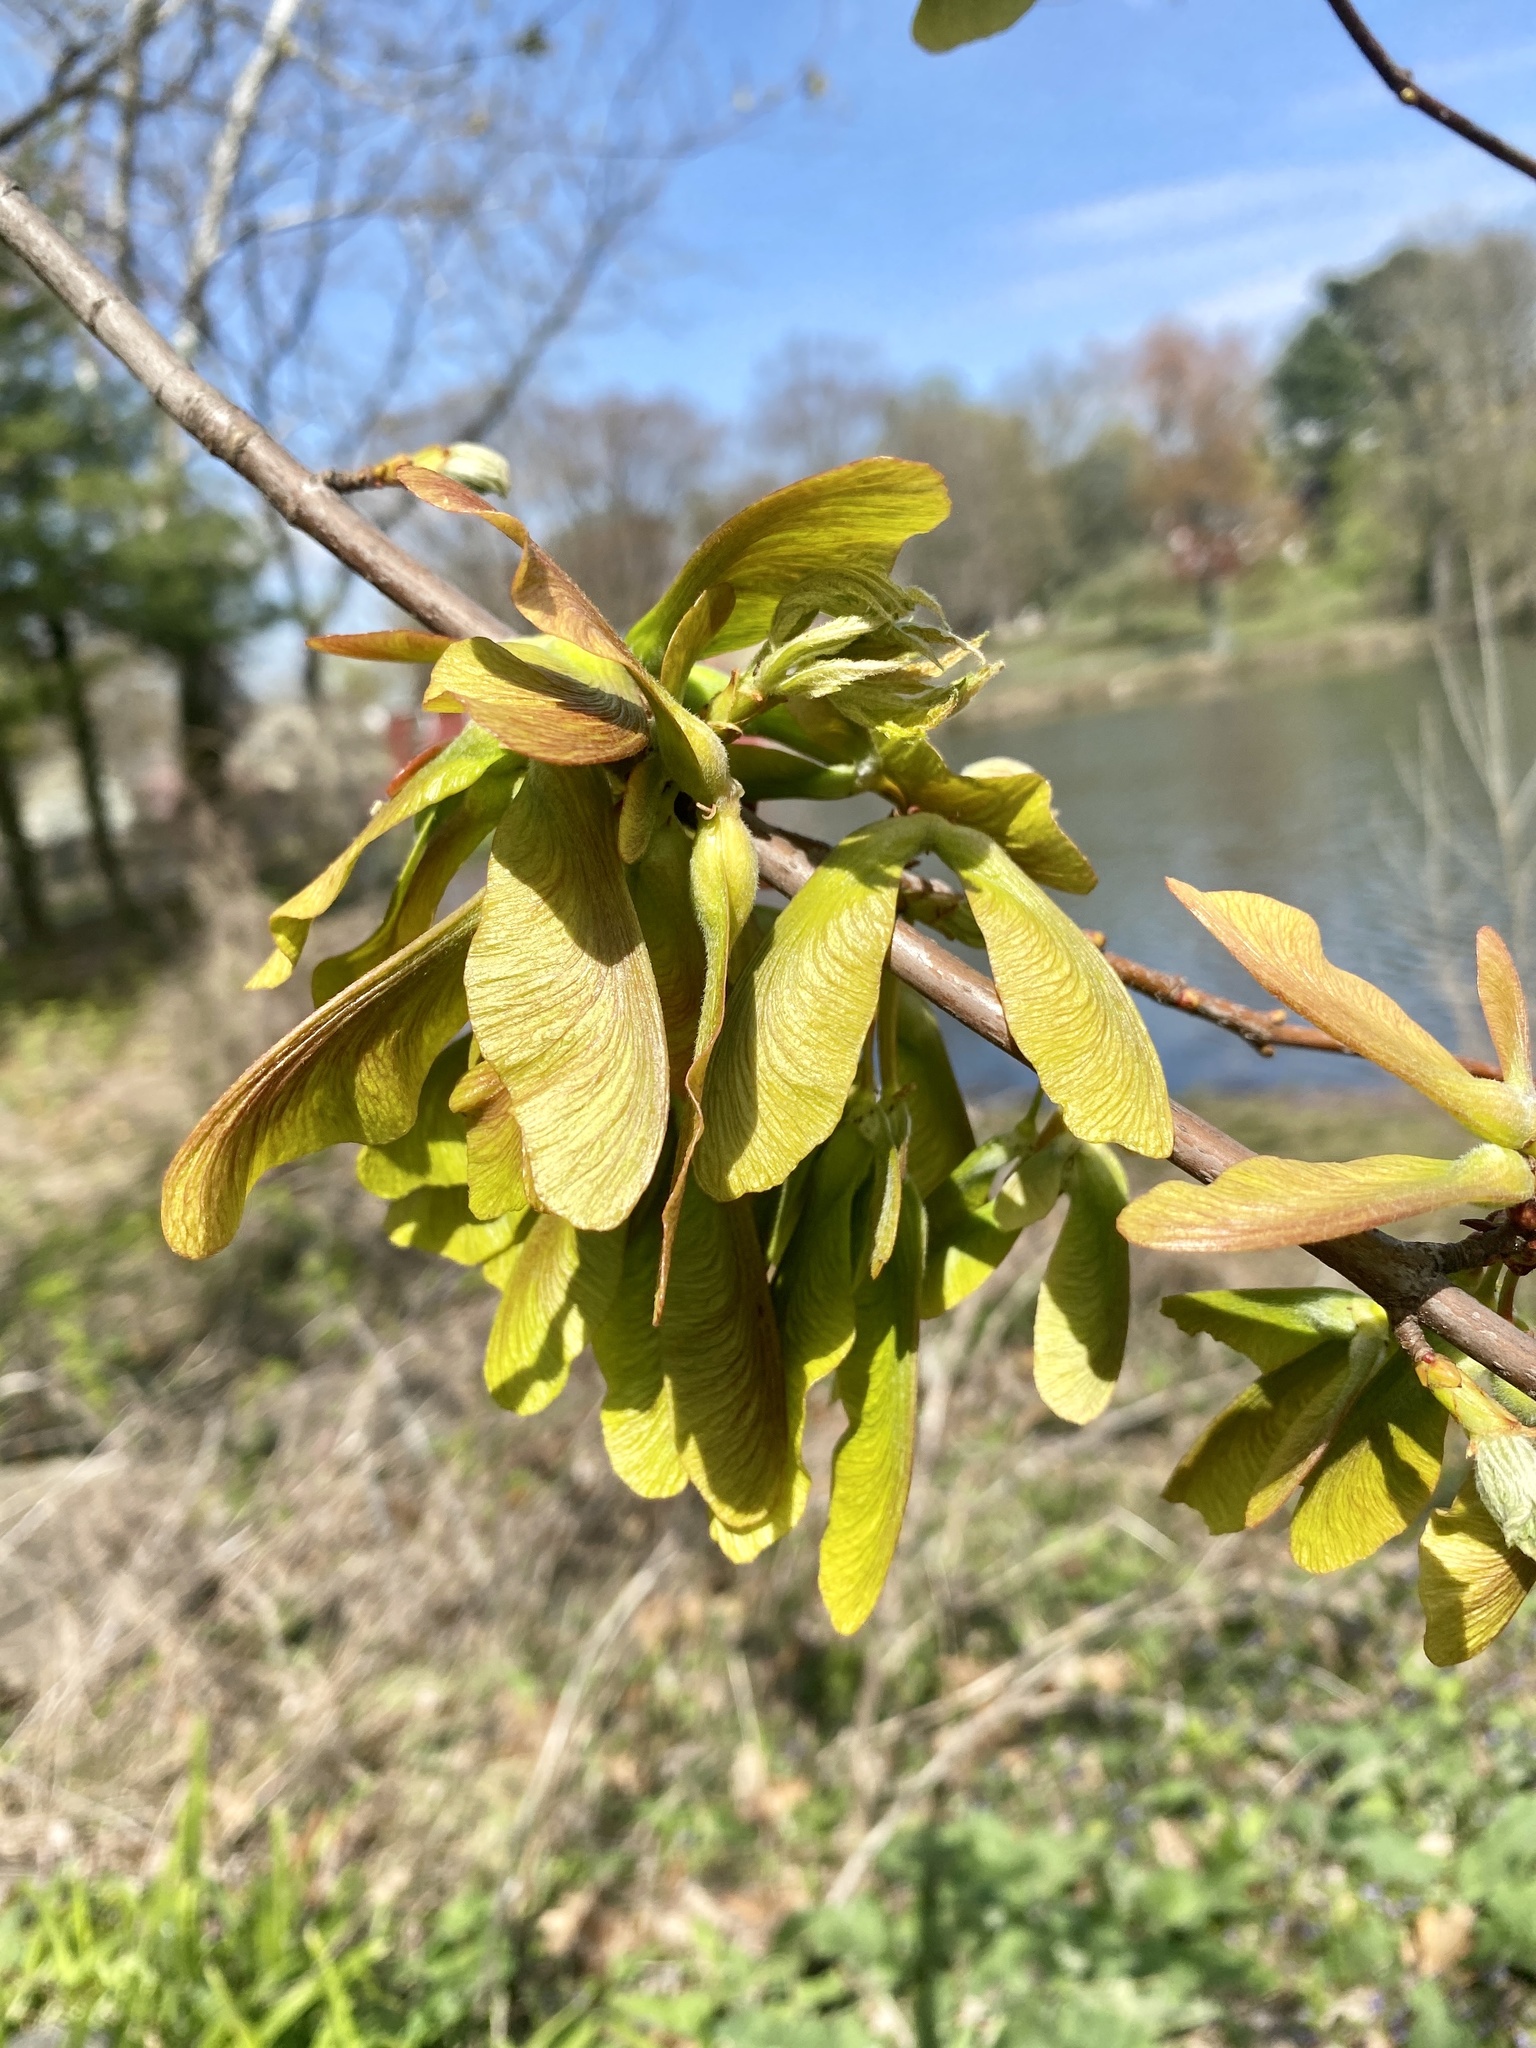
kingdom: Plantae
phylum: Tracheophyta
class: Magnoliopsida
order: Sapindales
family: Sapindaceae
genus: Acer
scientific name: Acer negundo
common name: Ashleaf maple
